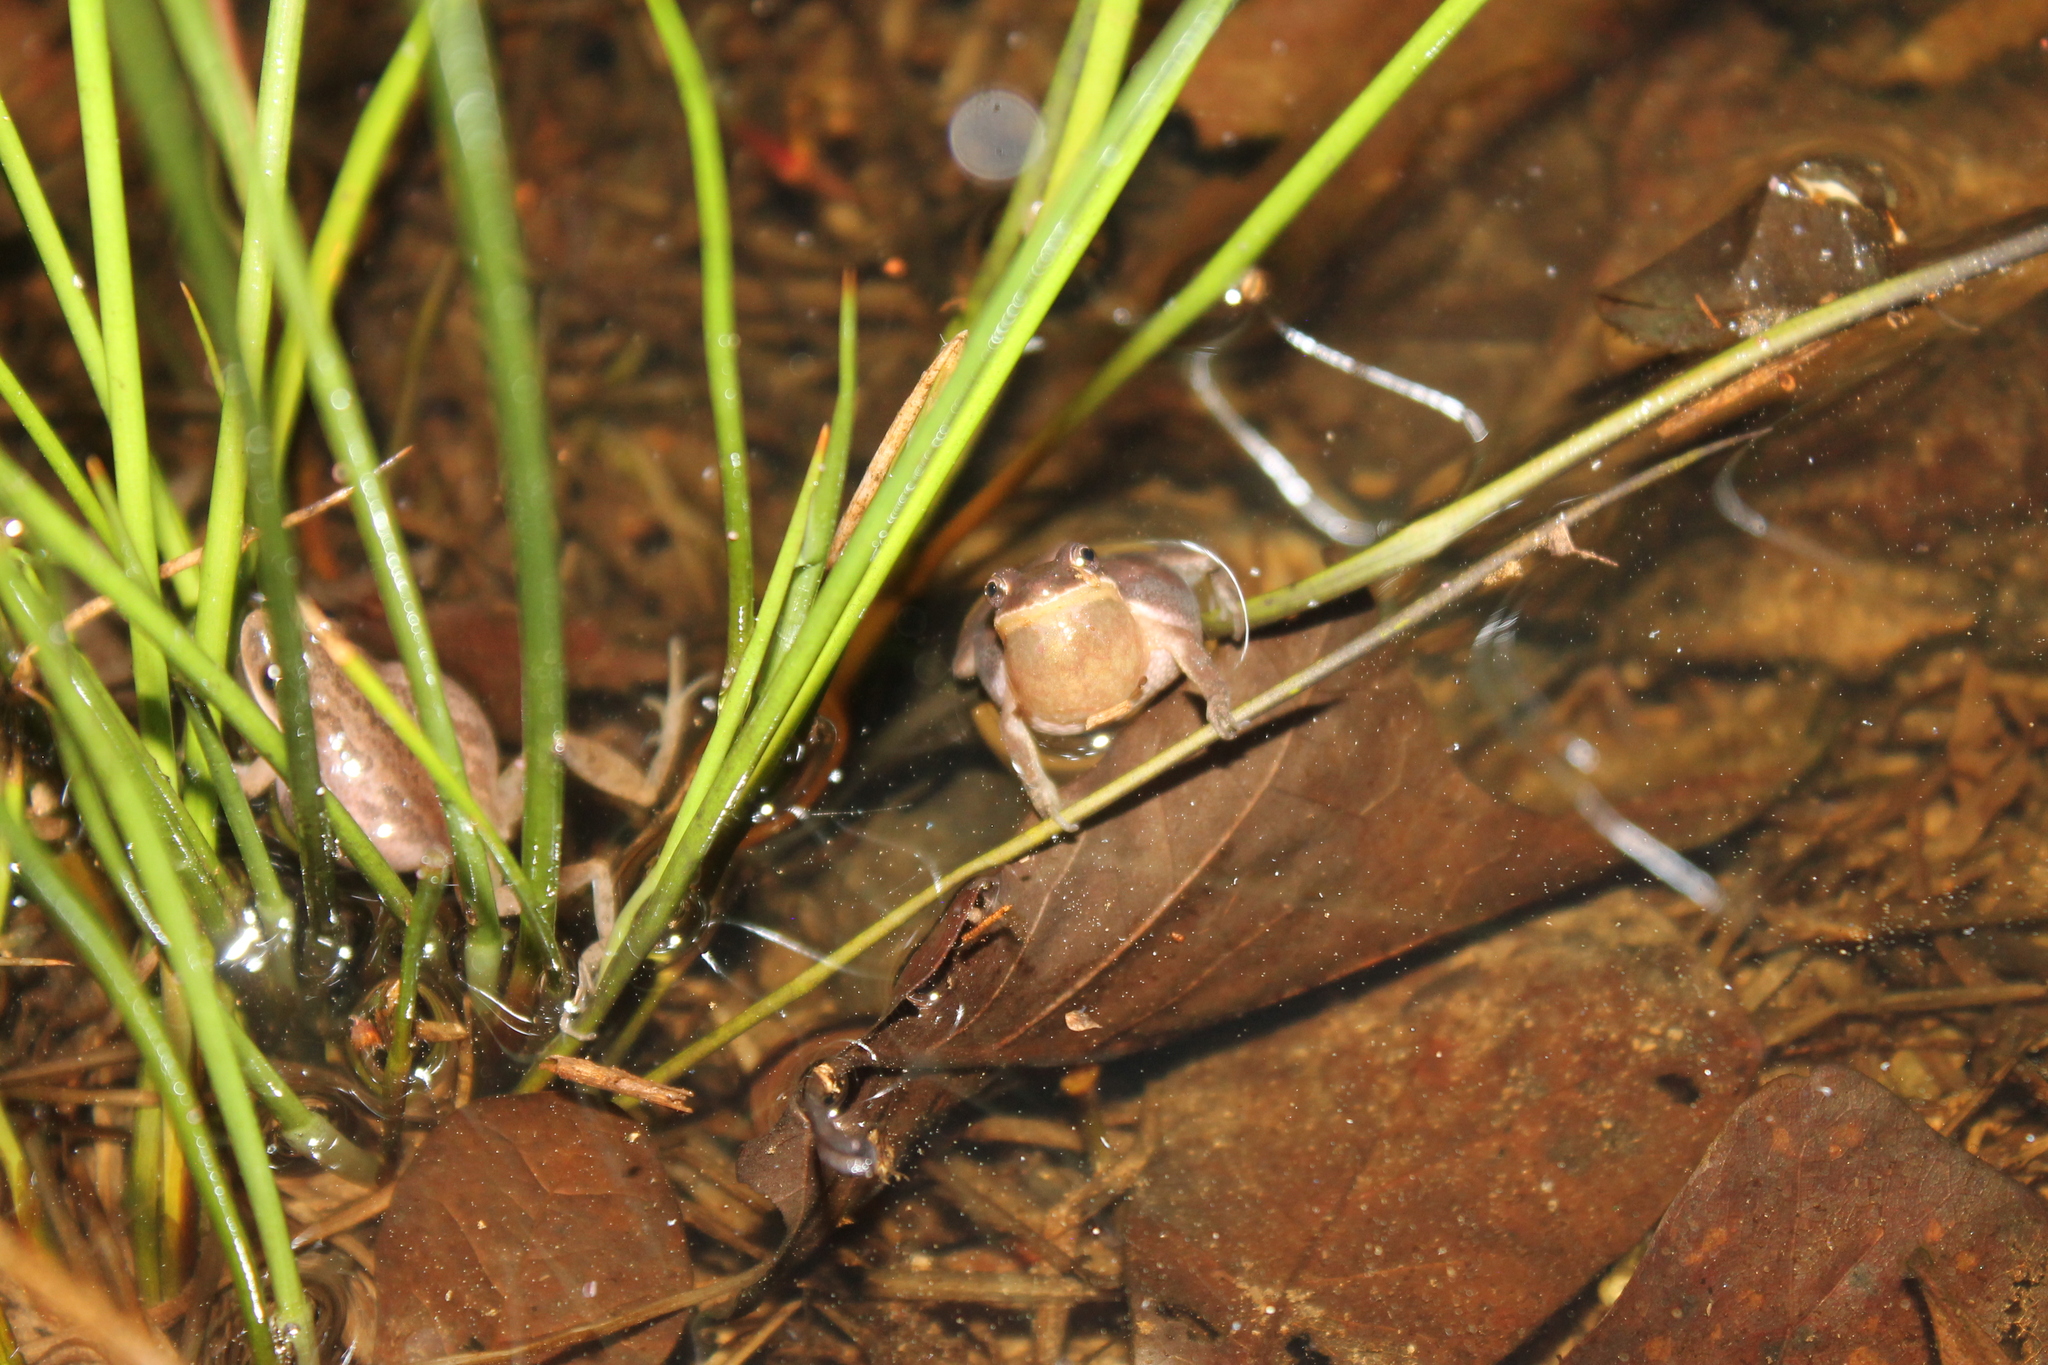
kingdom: Animalia
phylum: Chordata
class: Amphibia
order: Anura
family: Hylidae
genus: Pseudacris
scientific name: Pseudacris feriarum
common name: Upland chorus frog
